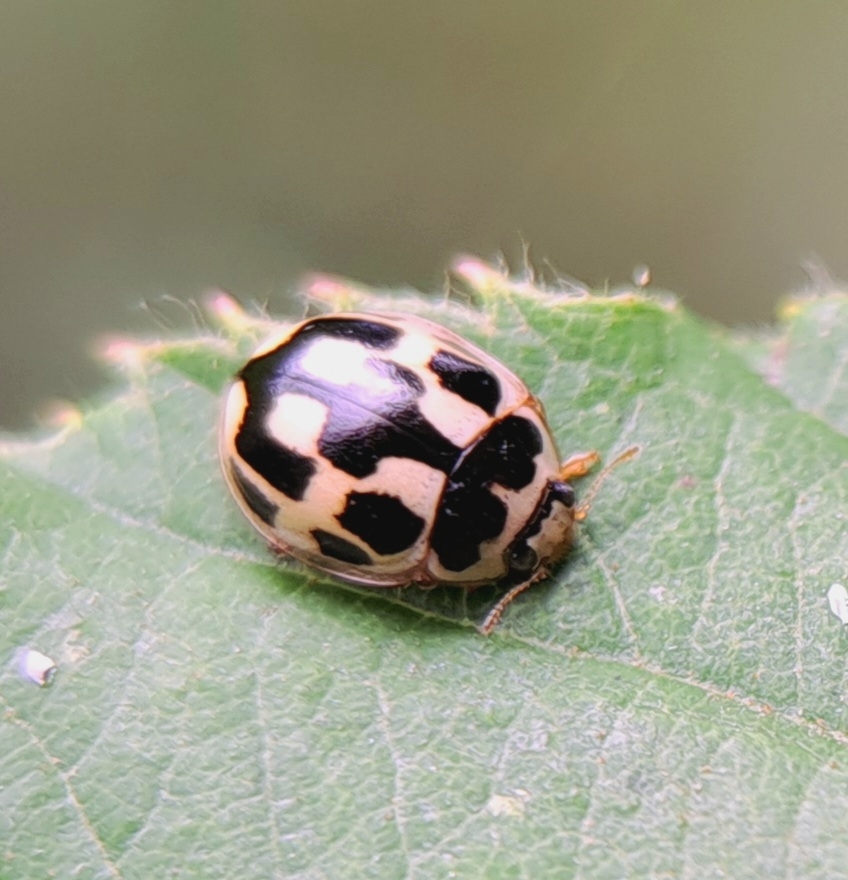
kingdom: Animalia
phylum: Arthropoda
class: Insecta
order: Coleoptera
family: Coccinellidae
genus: Propylaea
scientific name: Propylaea quatuordecimpunctata
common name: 14-spotted ladybird beetle
